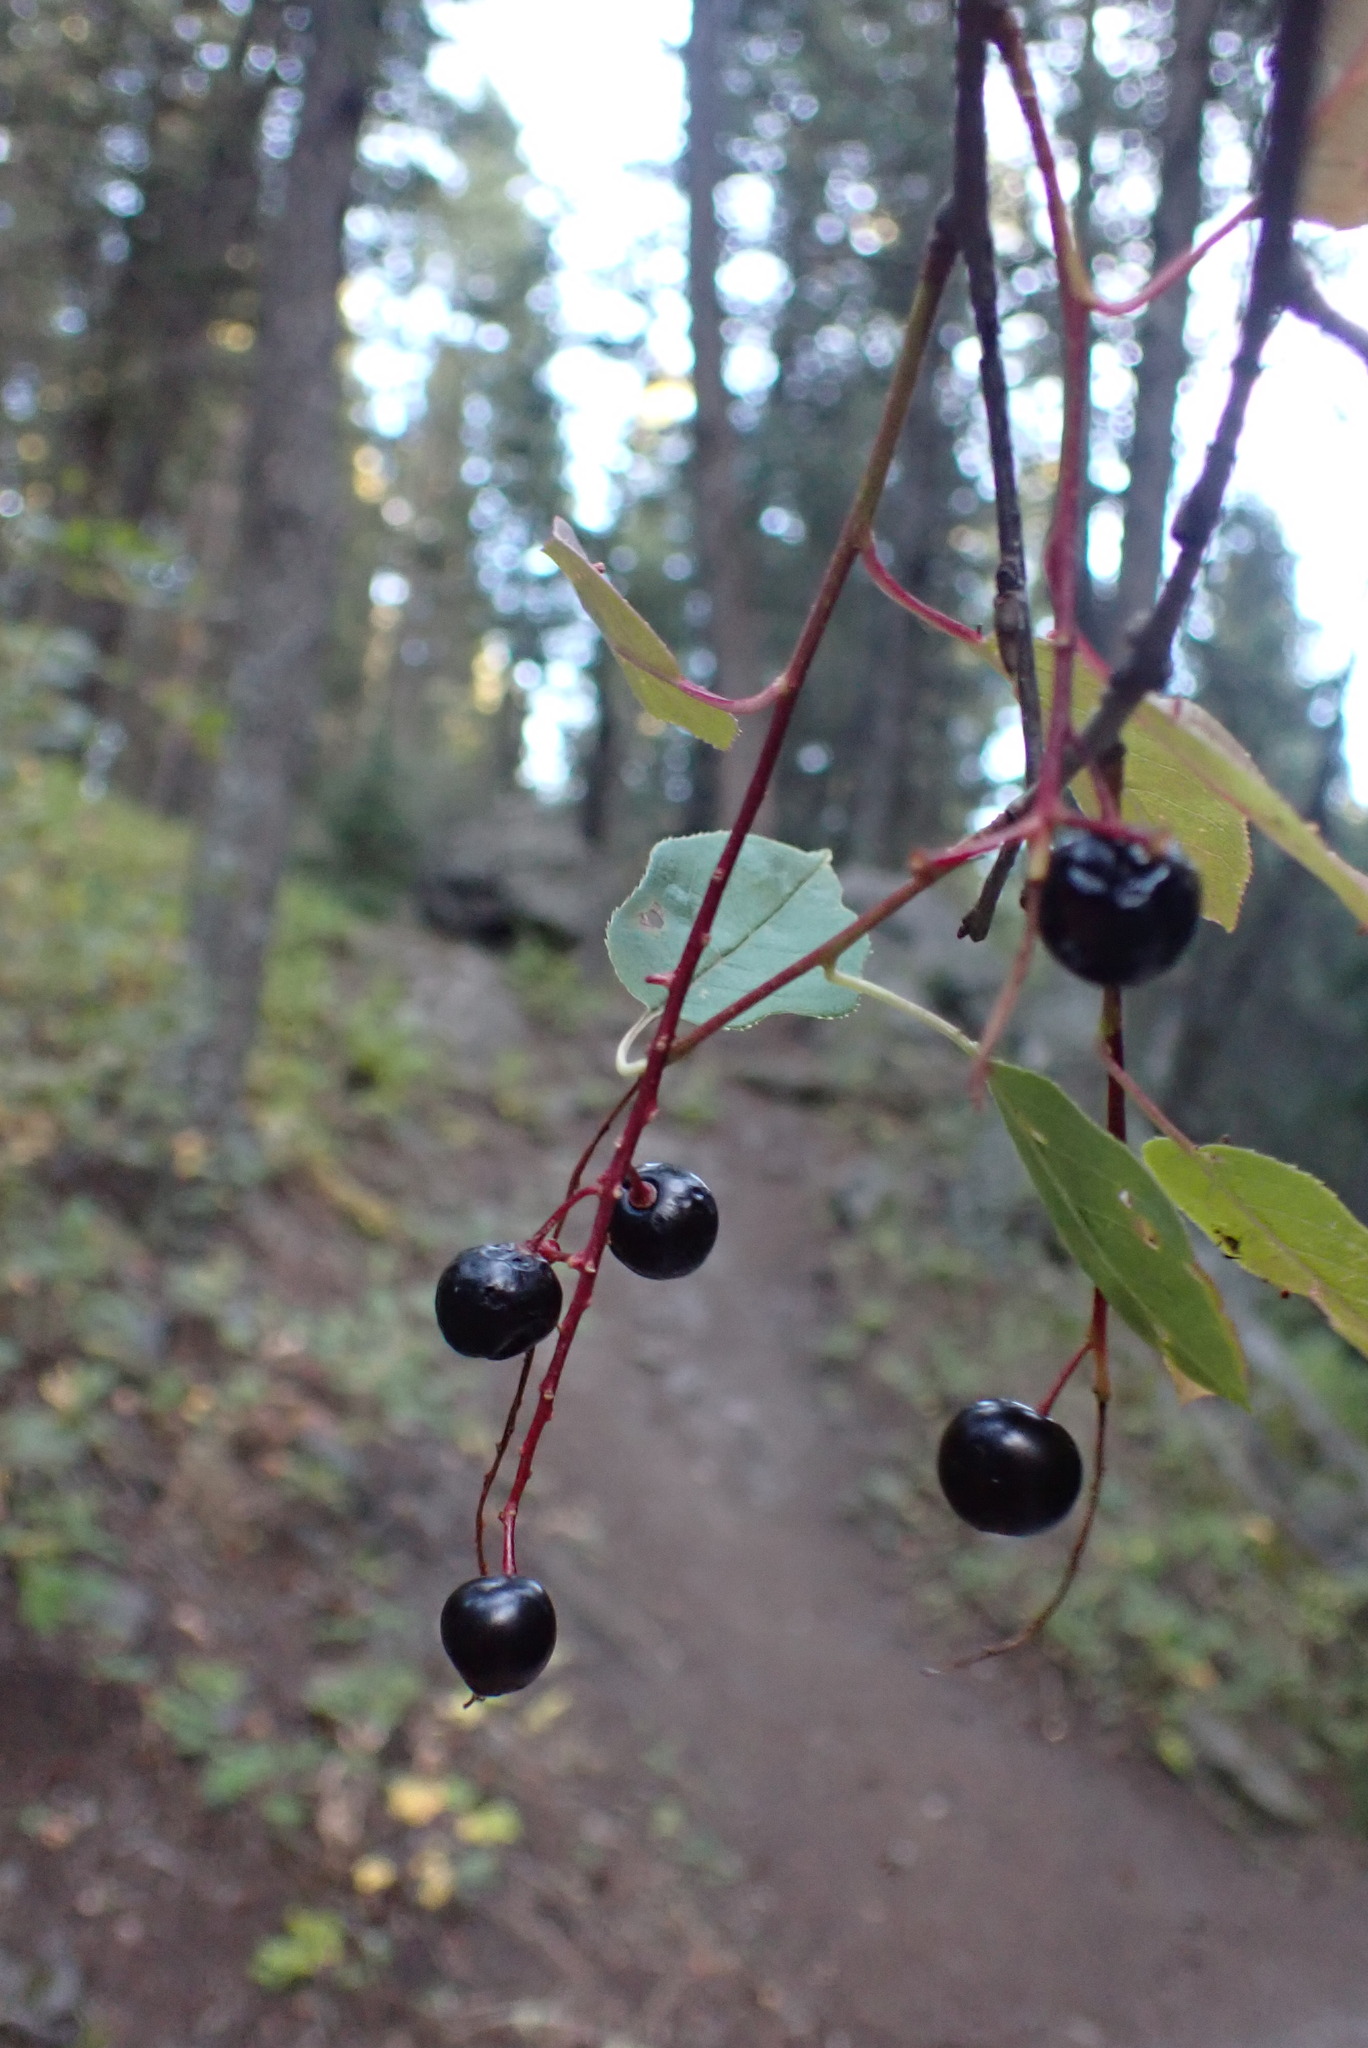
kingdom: Plantae
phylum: Tracheophyta
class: Magnoliopsida
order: Rosales
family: Rosaceae
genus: Prunus
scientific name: Prunus virginiana
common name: Chokecherry
